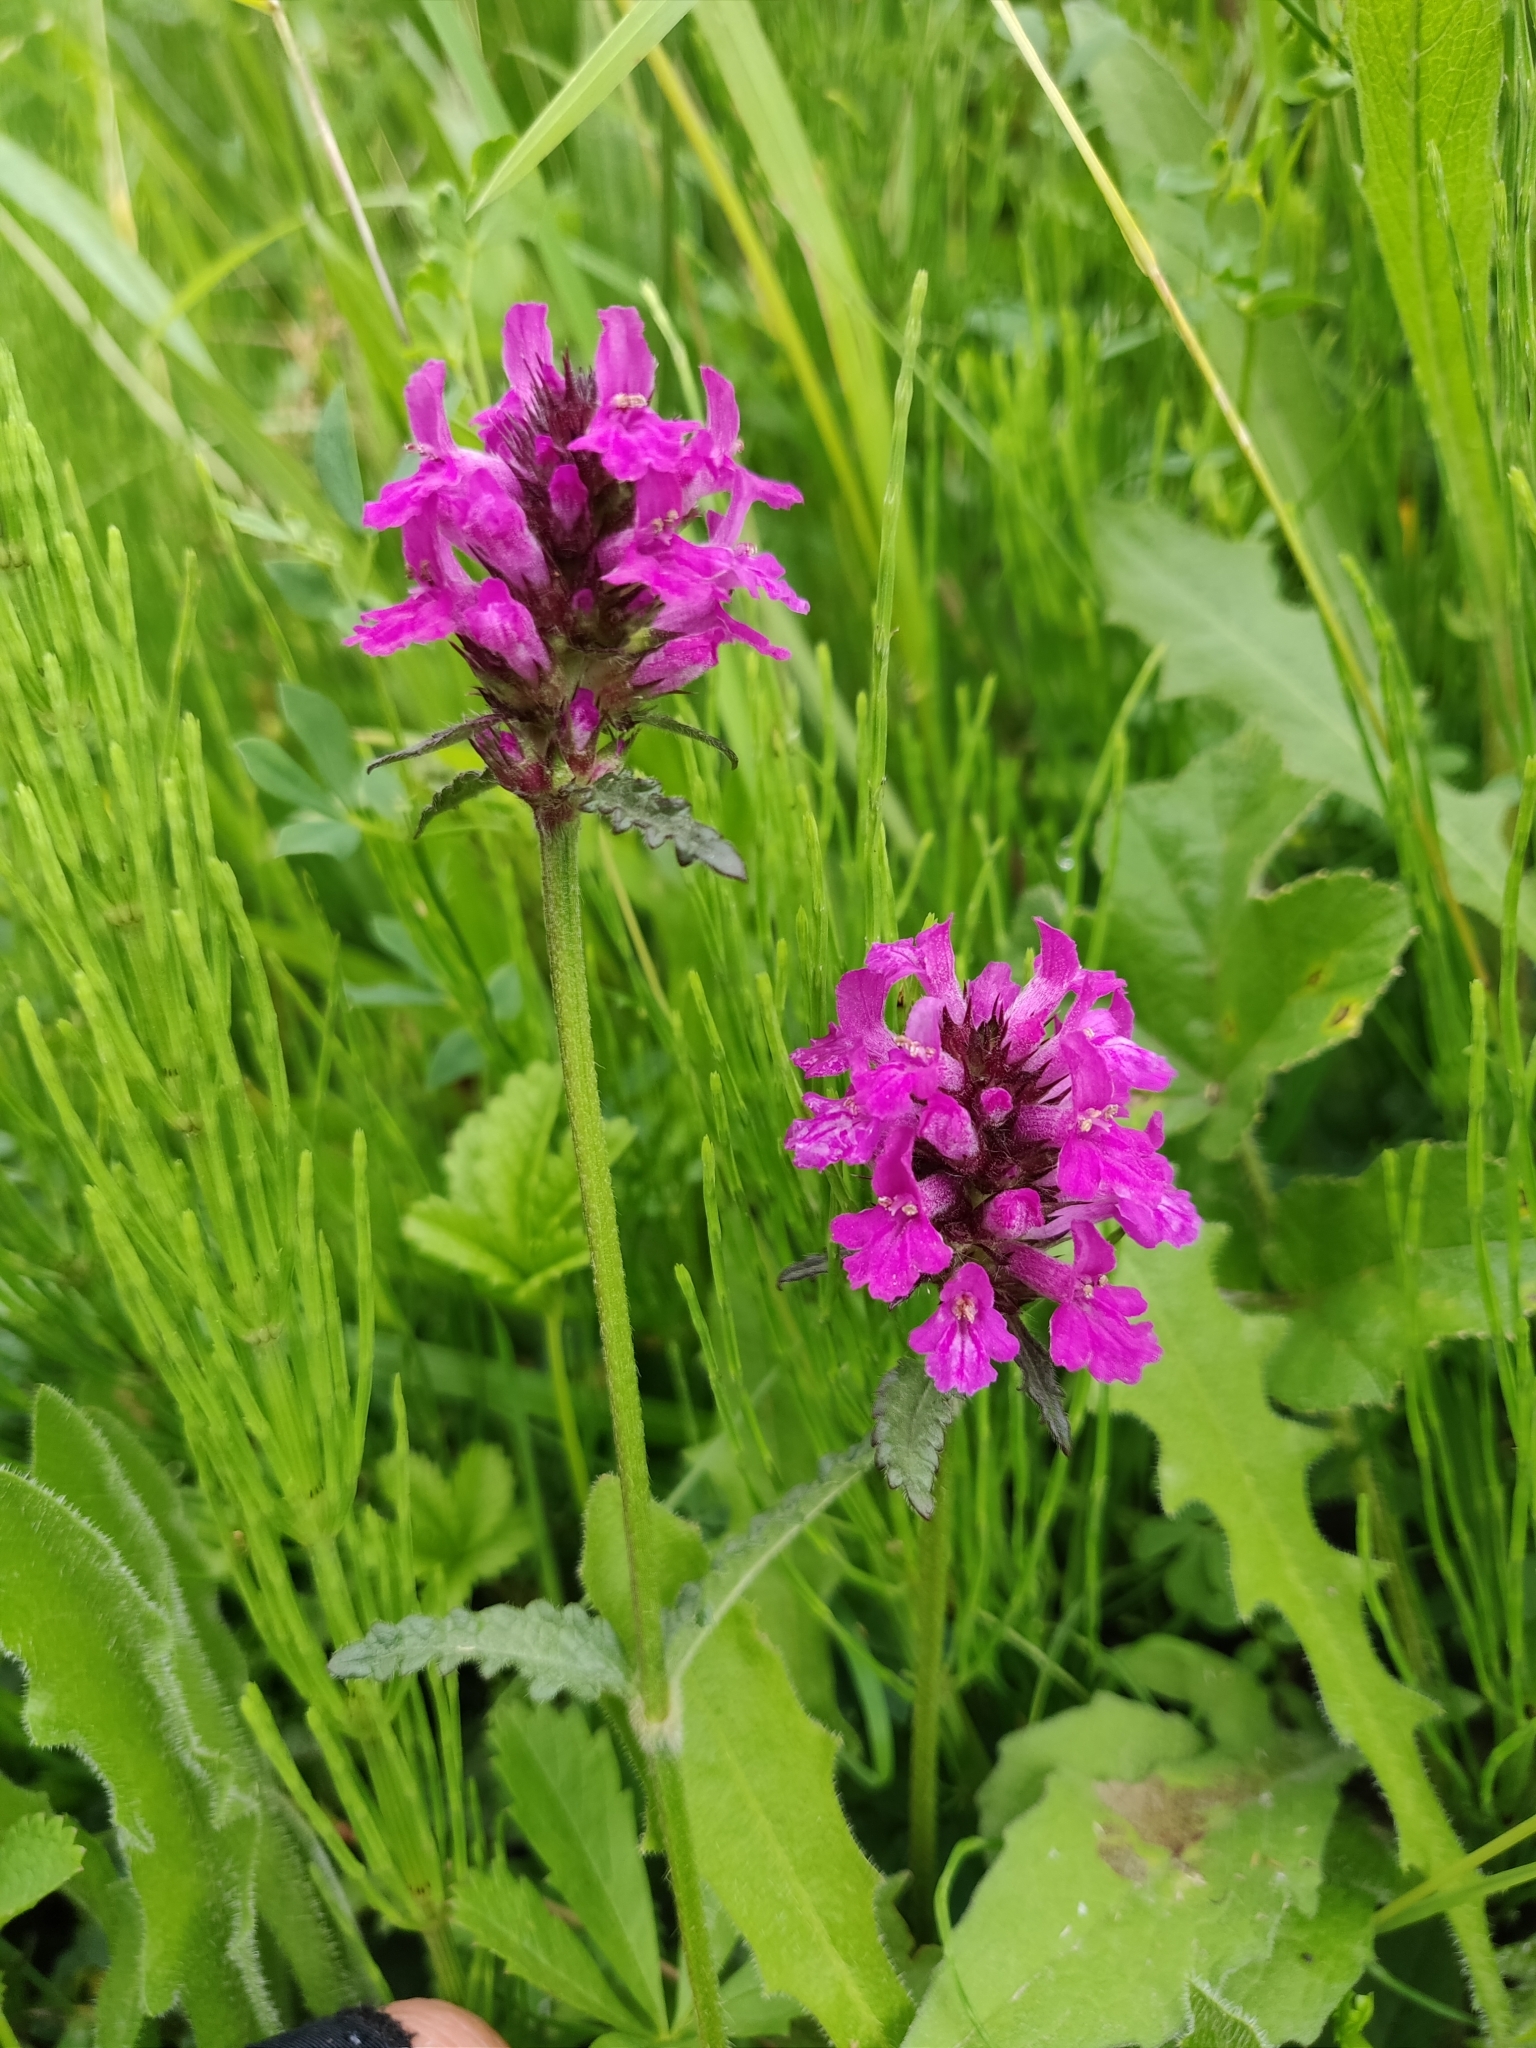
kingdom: Plantae
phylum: Tracheophyta
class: Magnoliopsida
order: Lamiales
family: Lamiaceae
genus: Betonica
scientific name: Betonica officinalis
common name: Bishop's-wort
